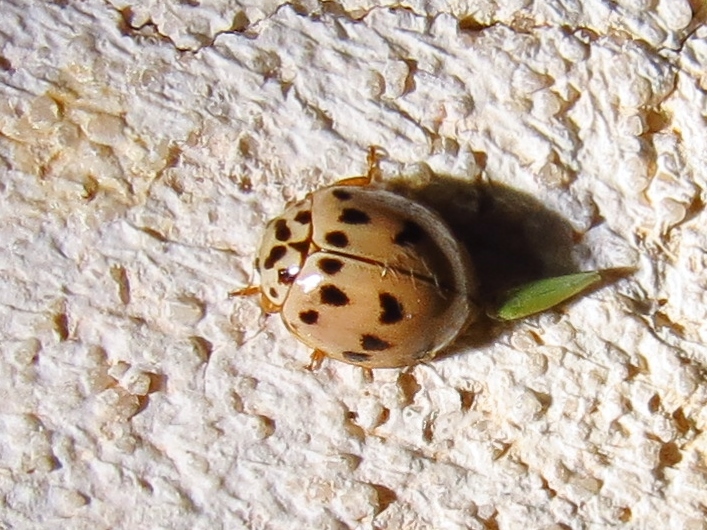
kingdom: Animalia
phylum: Arthropoda
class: Insecta
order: Coleoptera
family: Coccinellidae
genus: Olla
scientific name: Olla v-nigrum
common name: Ashy gray lady beetle
